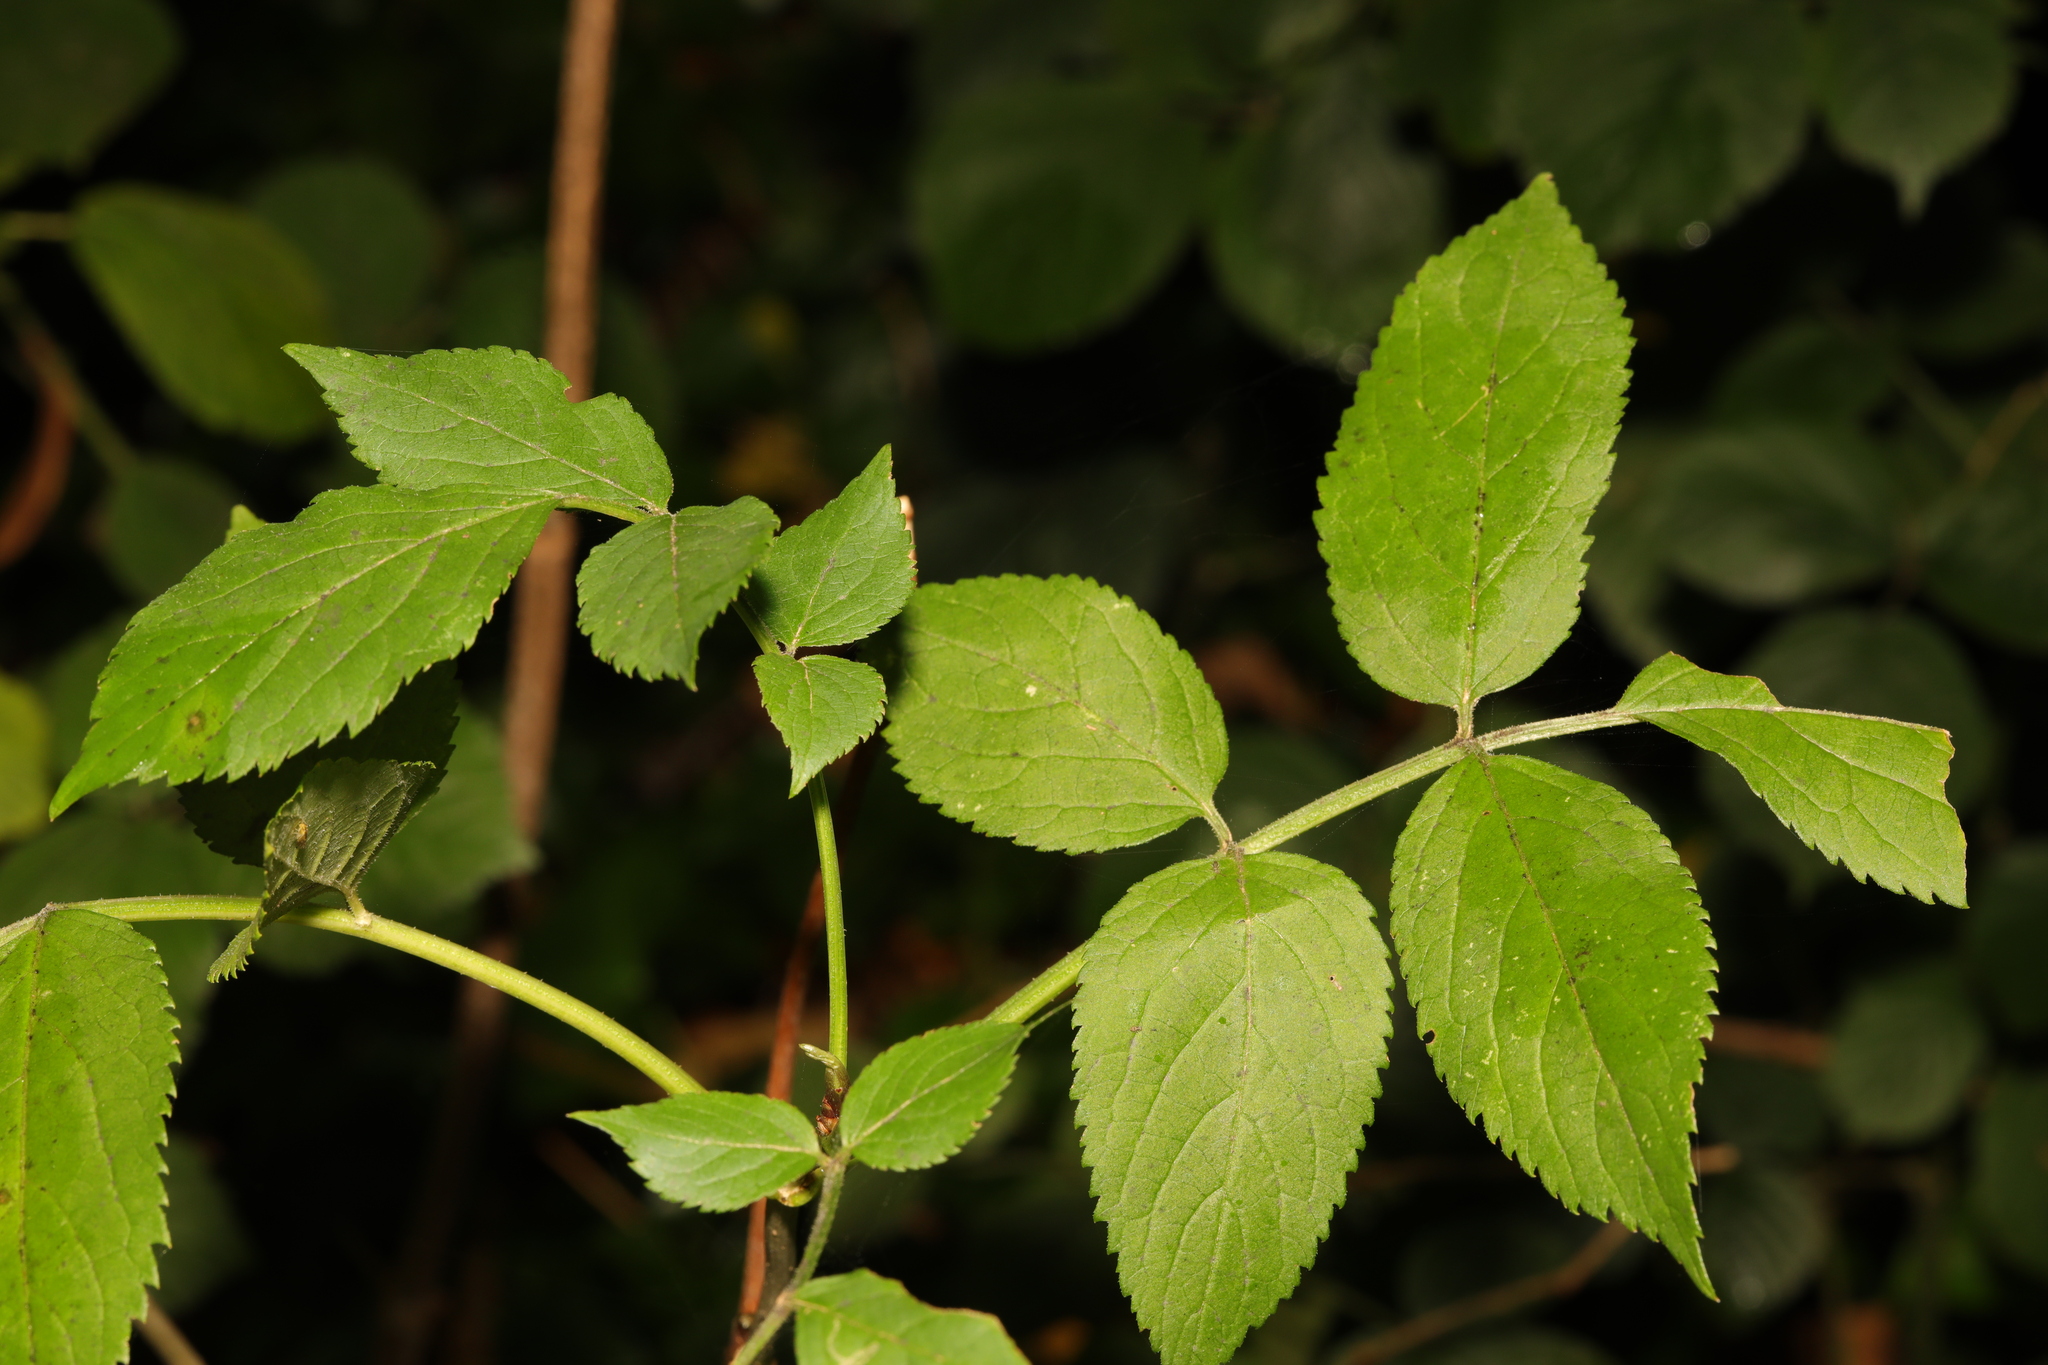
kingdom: Plantae
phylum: Tracheophyta
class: Magnoliopsida
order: Dipsacales
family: Viburnaceae
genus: Sambucus
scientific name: Sambucus nigra
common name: Elder
